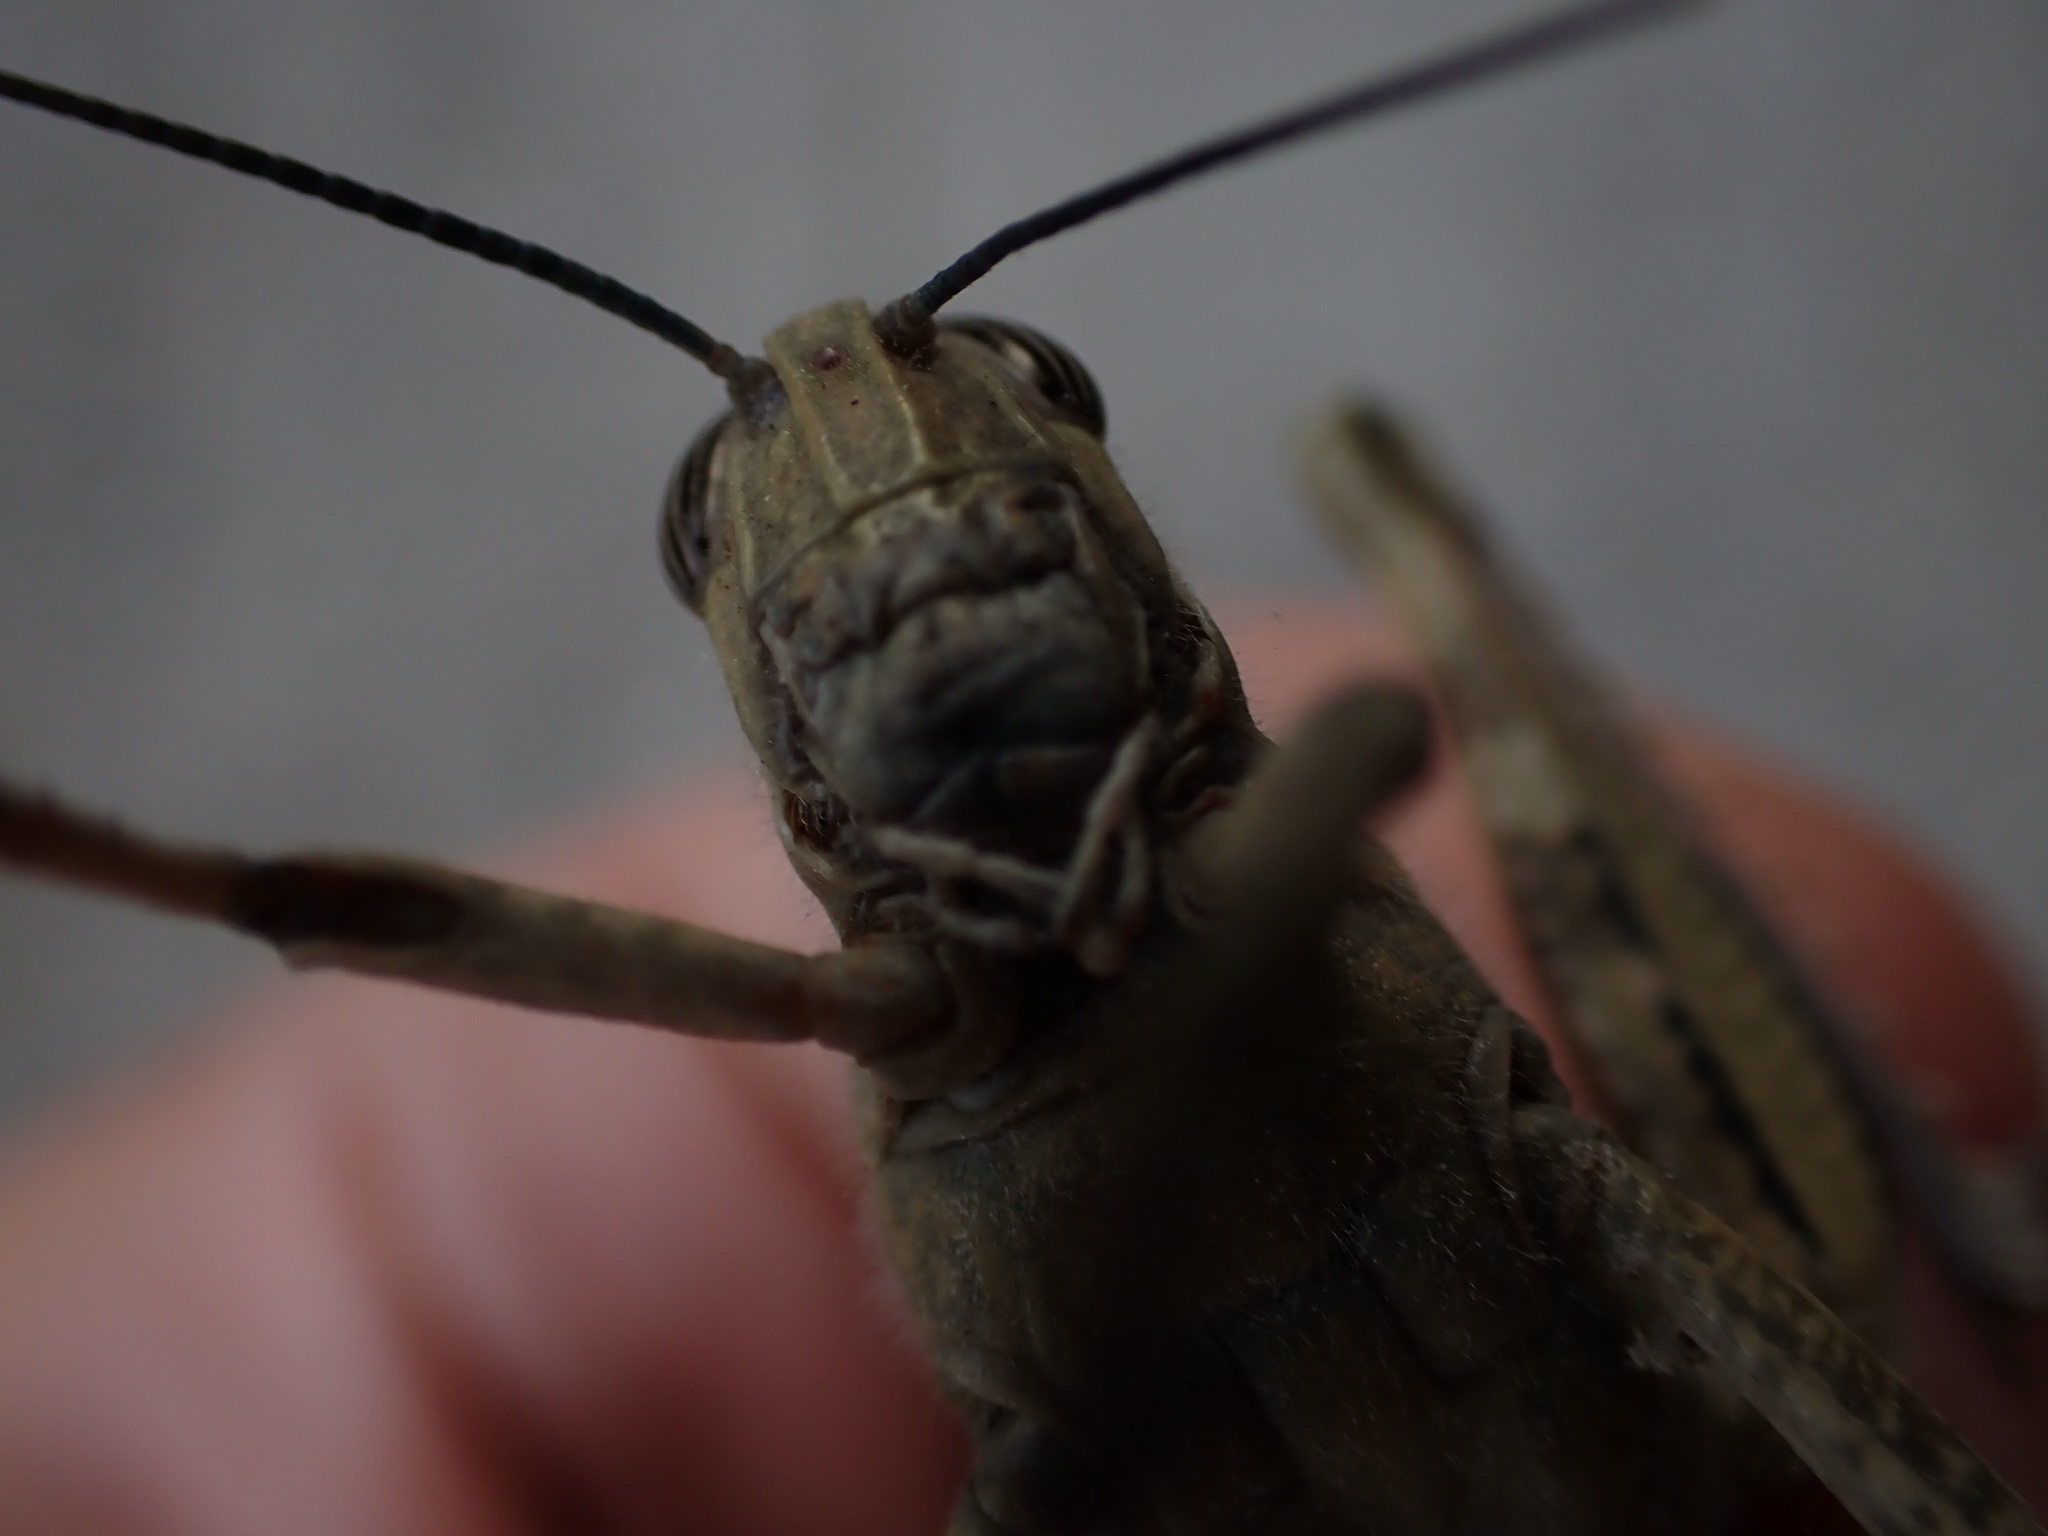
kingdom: Animalia
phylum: Arthropoda
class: Insecta
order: Orthoptera
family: Acrididae
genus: Anacridium
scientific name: Anacridium aegyptium
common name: Egyptian grasshopper
